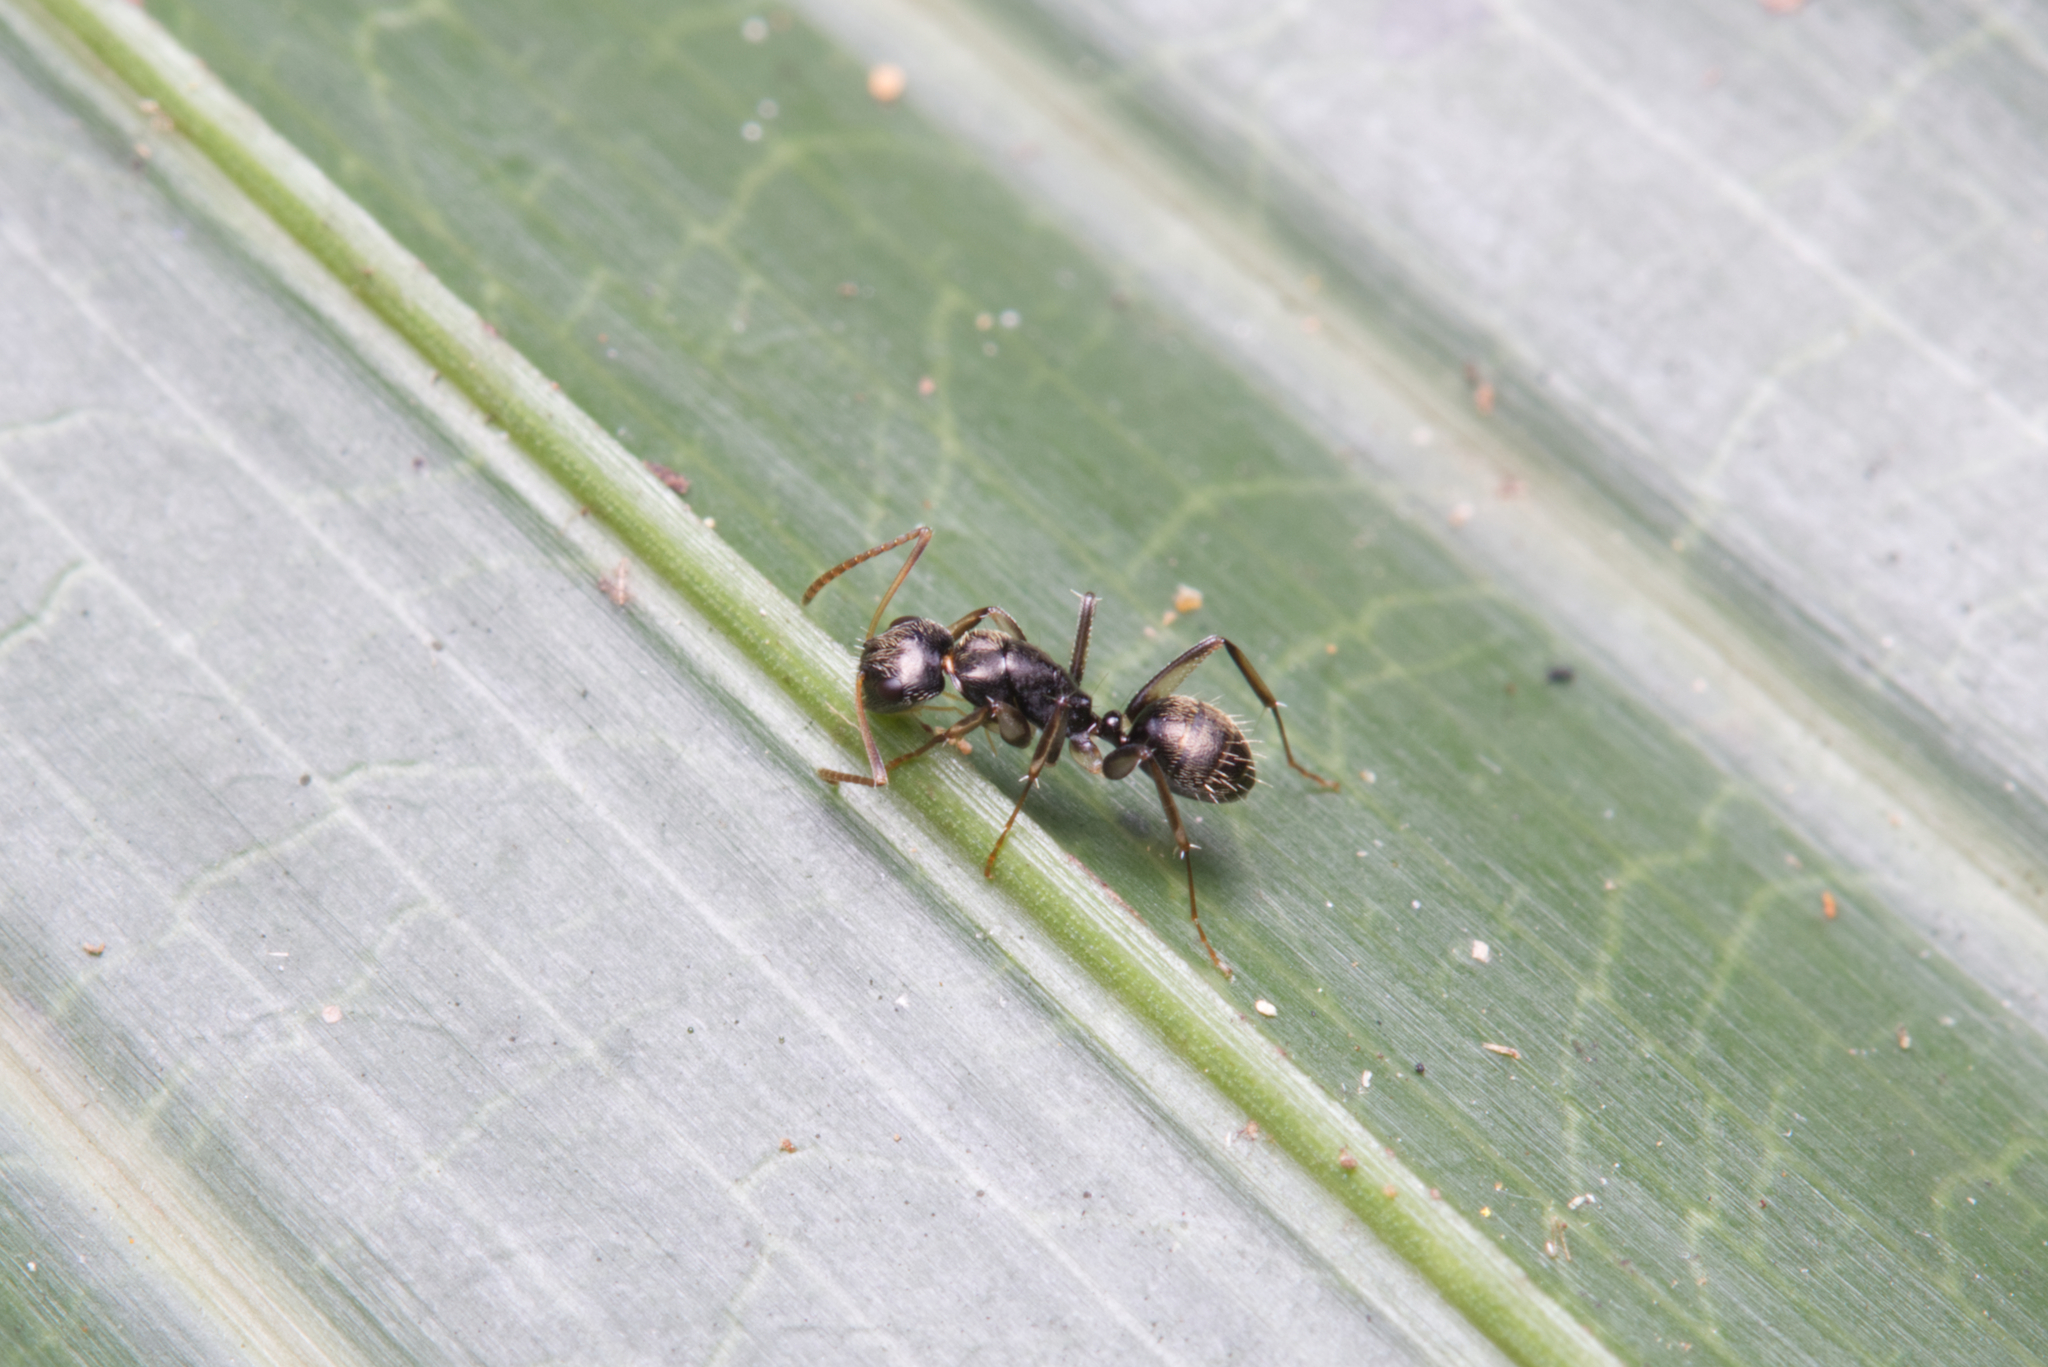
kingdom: Animalia
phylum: Arthropoda
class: Insecta
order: Hymenoptera
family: Formicidae
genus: Camponotus
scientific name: Camponotus froggatti
